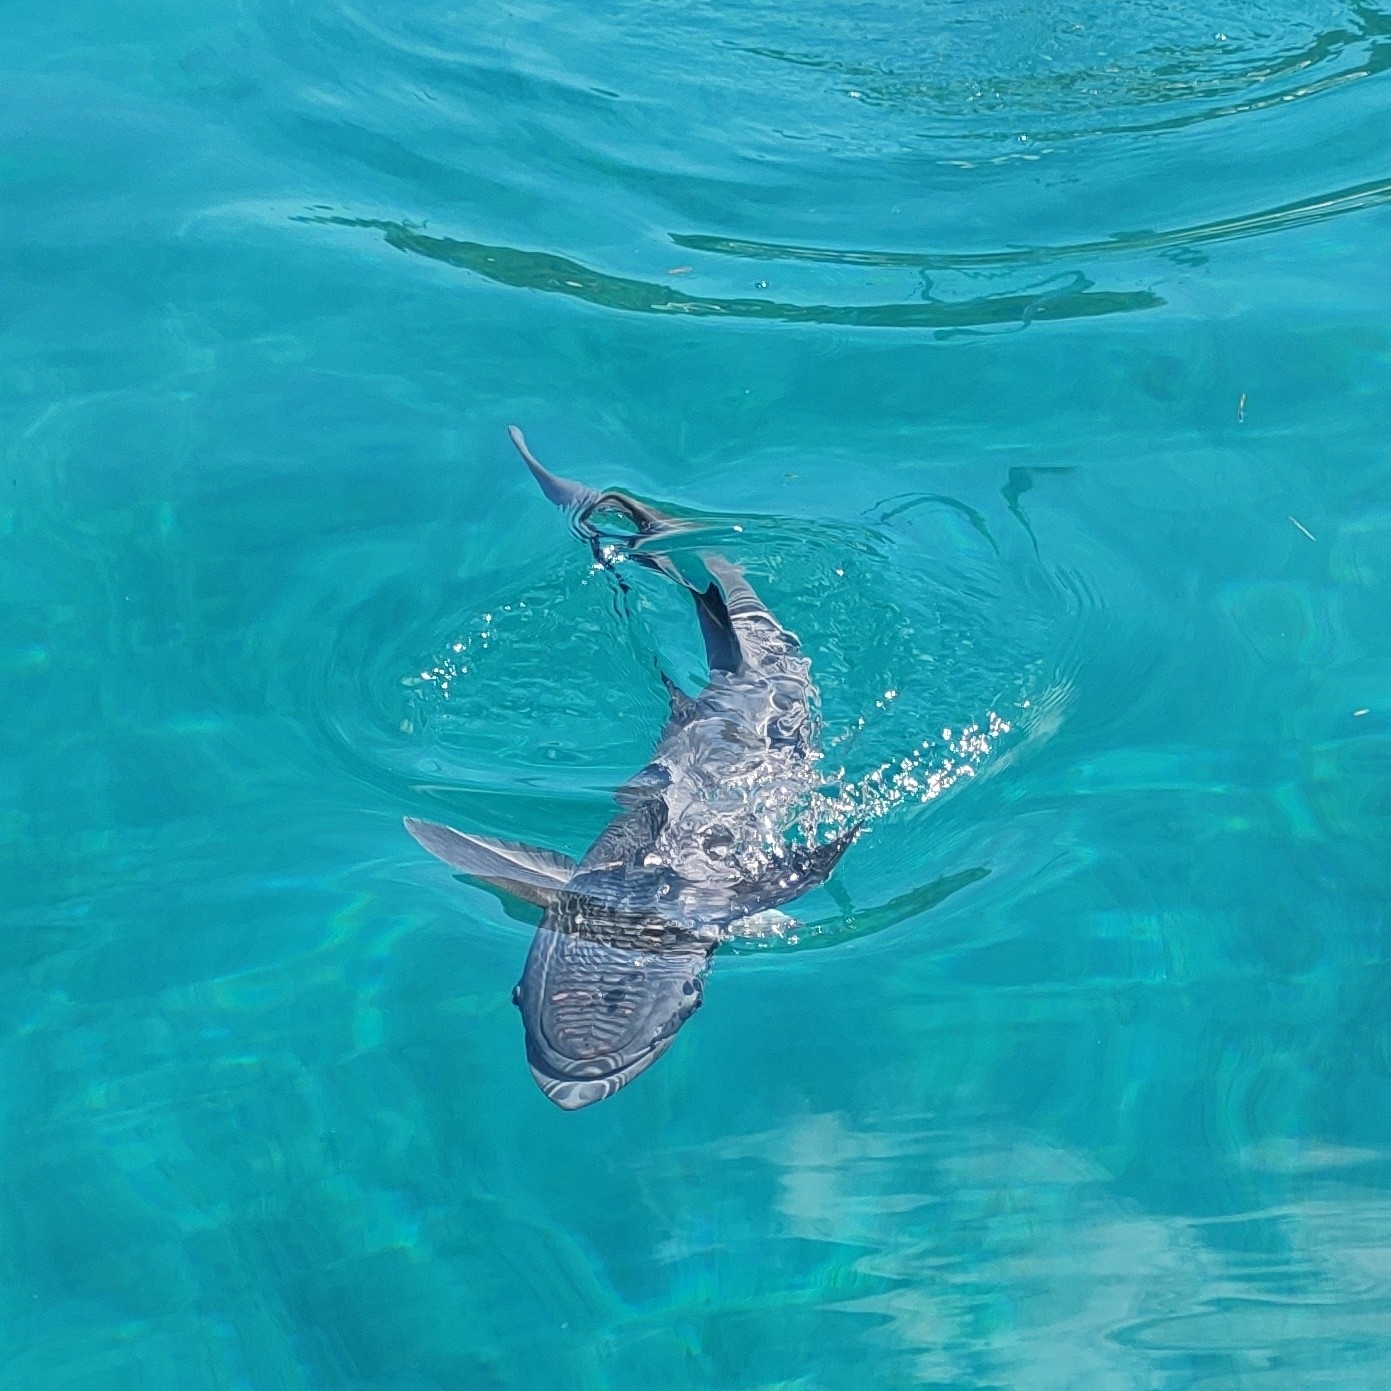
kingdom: Animalia
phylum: Chordata
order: Perciformes
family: Echeneidae
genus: Echeneis
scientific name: Echeneis naucrates
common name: Sharksucker
